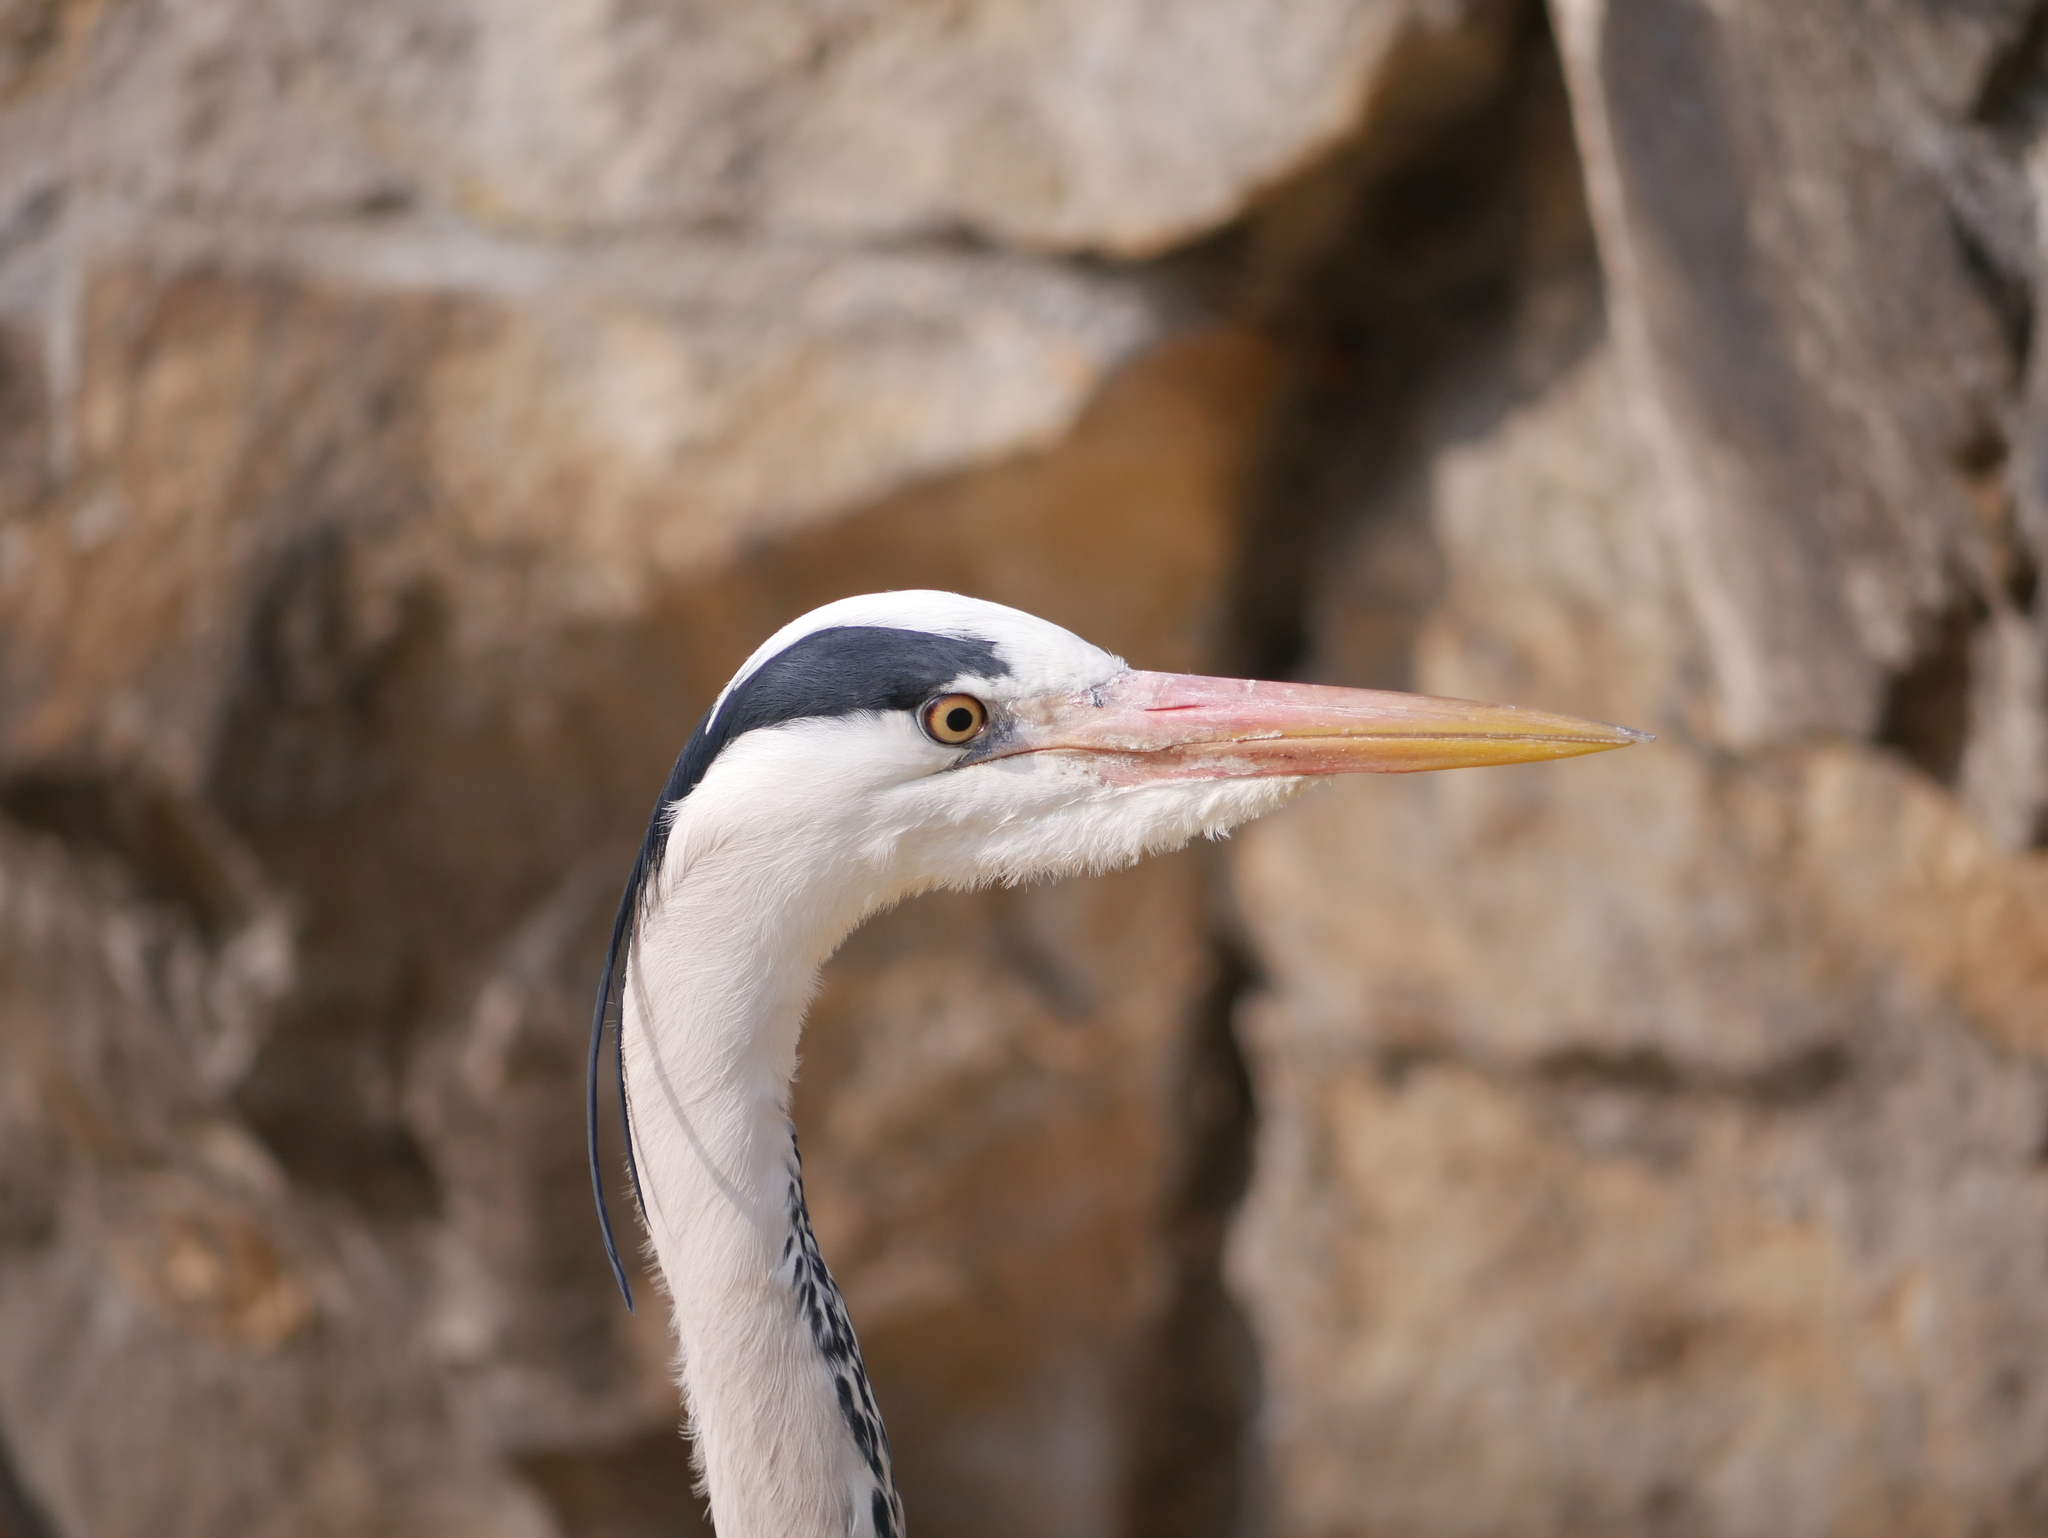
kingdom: Animalia
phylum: Chordata
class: Aves
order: Pelecaniformes
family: Ardeidae
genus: Ardea
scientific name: Ardea cinerea
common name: Grey heron
